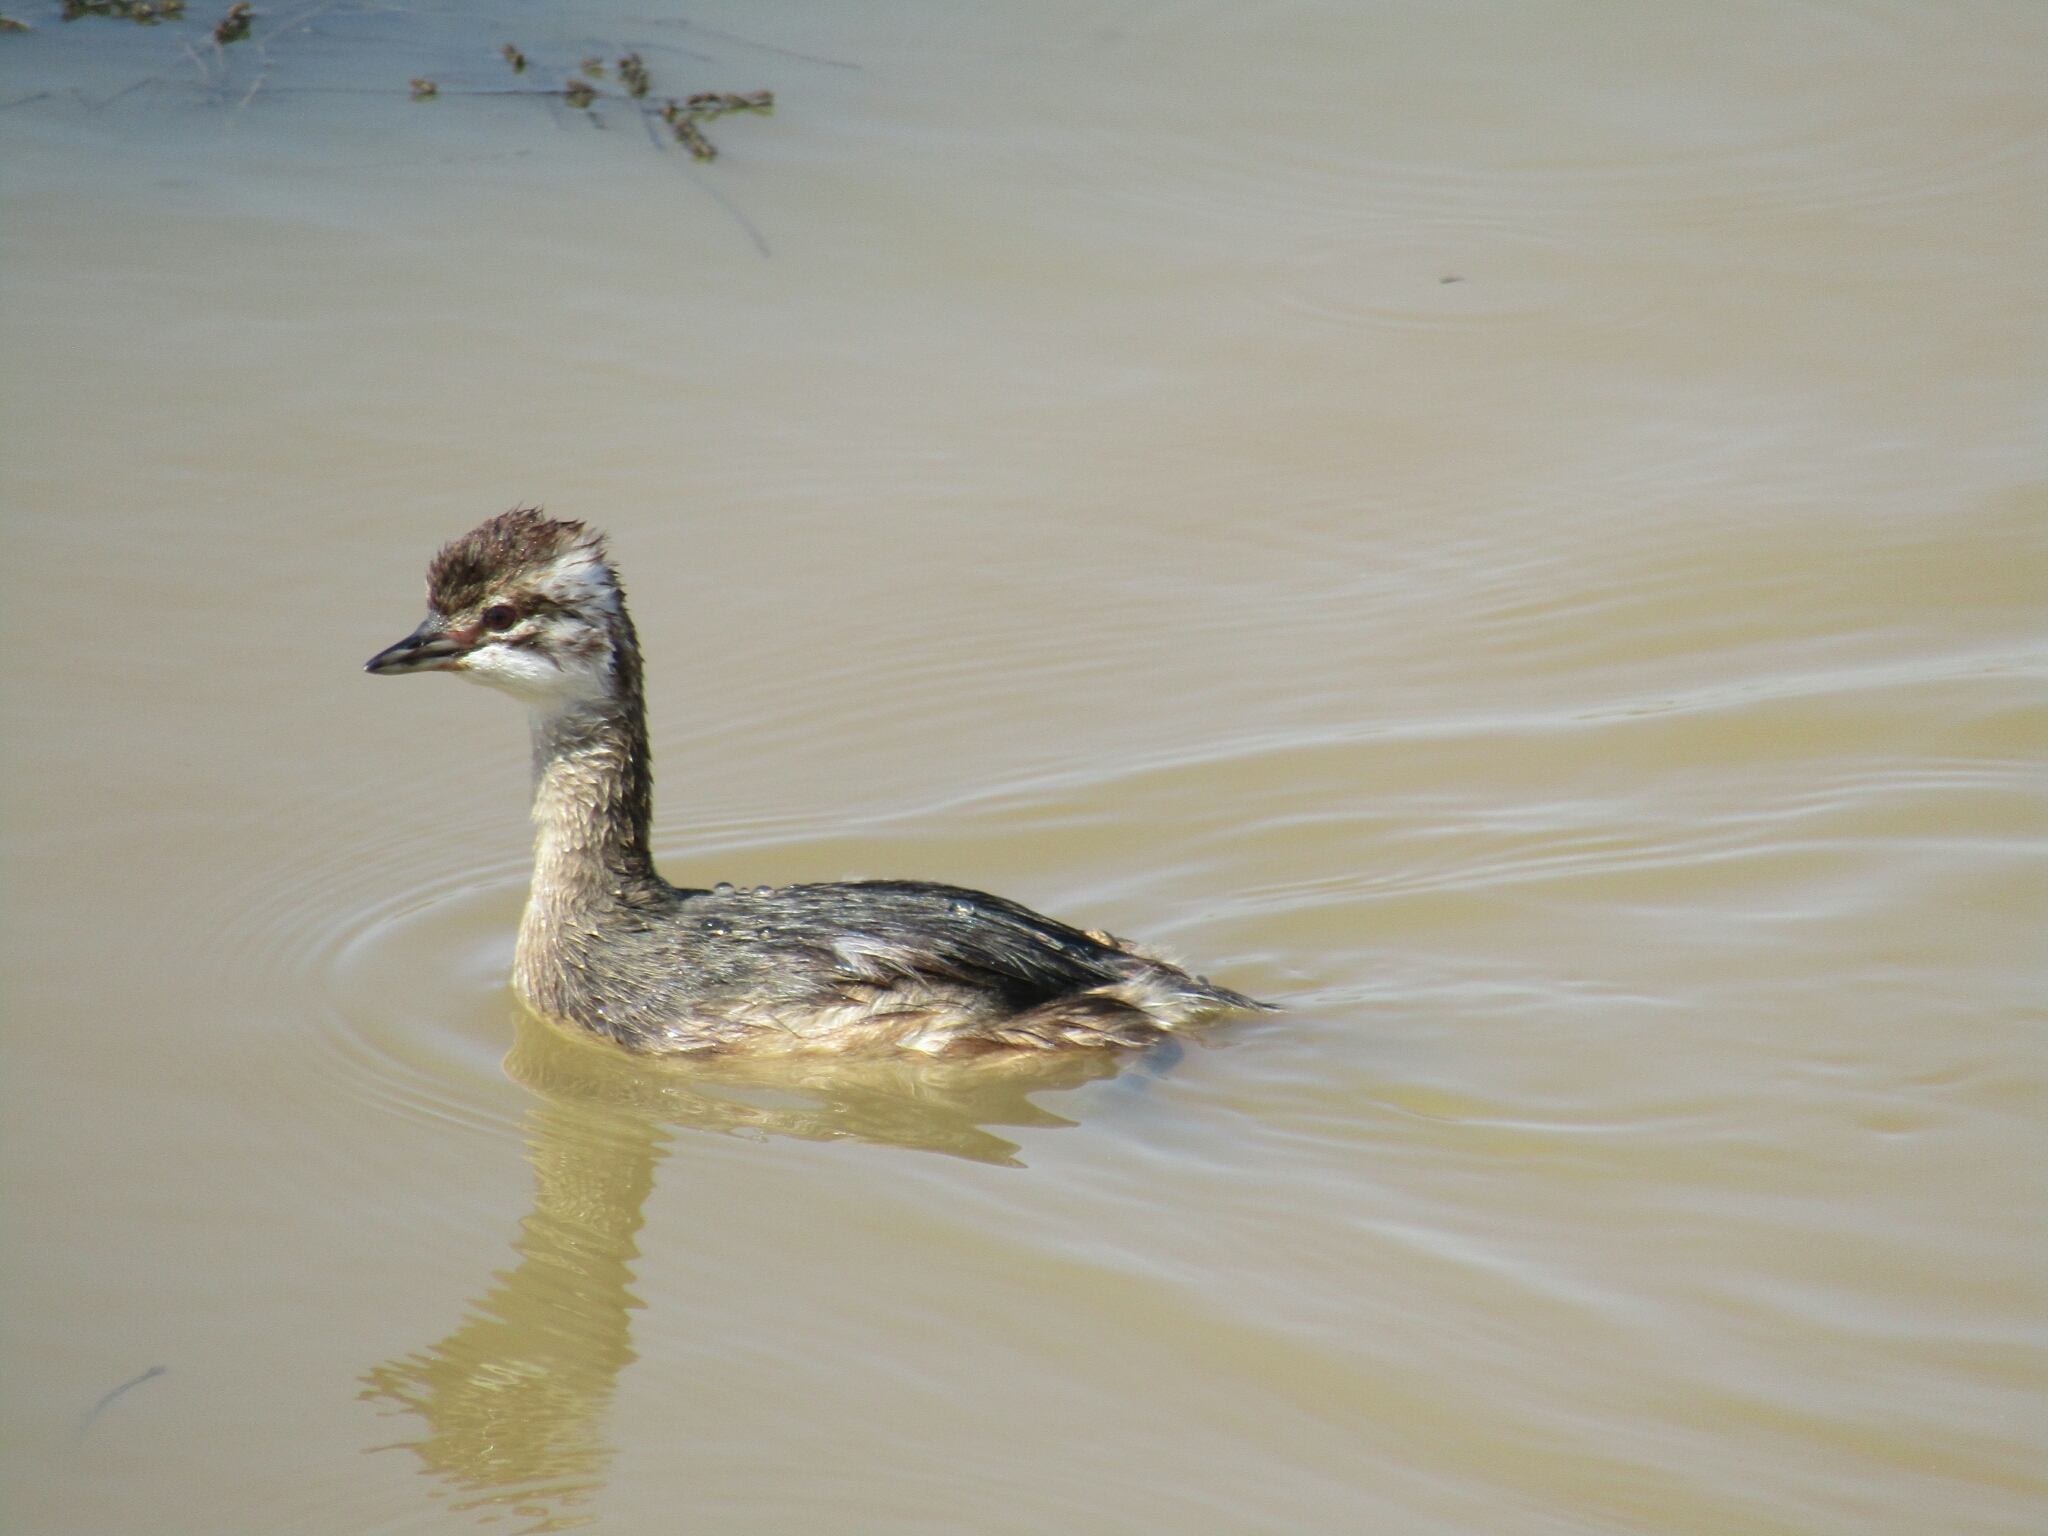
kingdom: Animalia
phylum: Chordata
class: Aves
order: Podicipediformes
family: Podicipedidae
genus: Podiceps
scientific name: Podiceps occipitalis
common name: Silvery grebe
